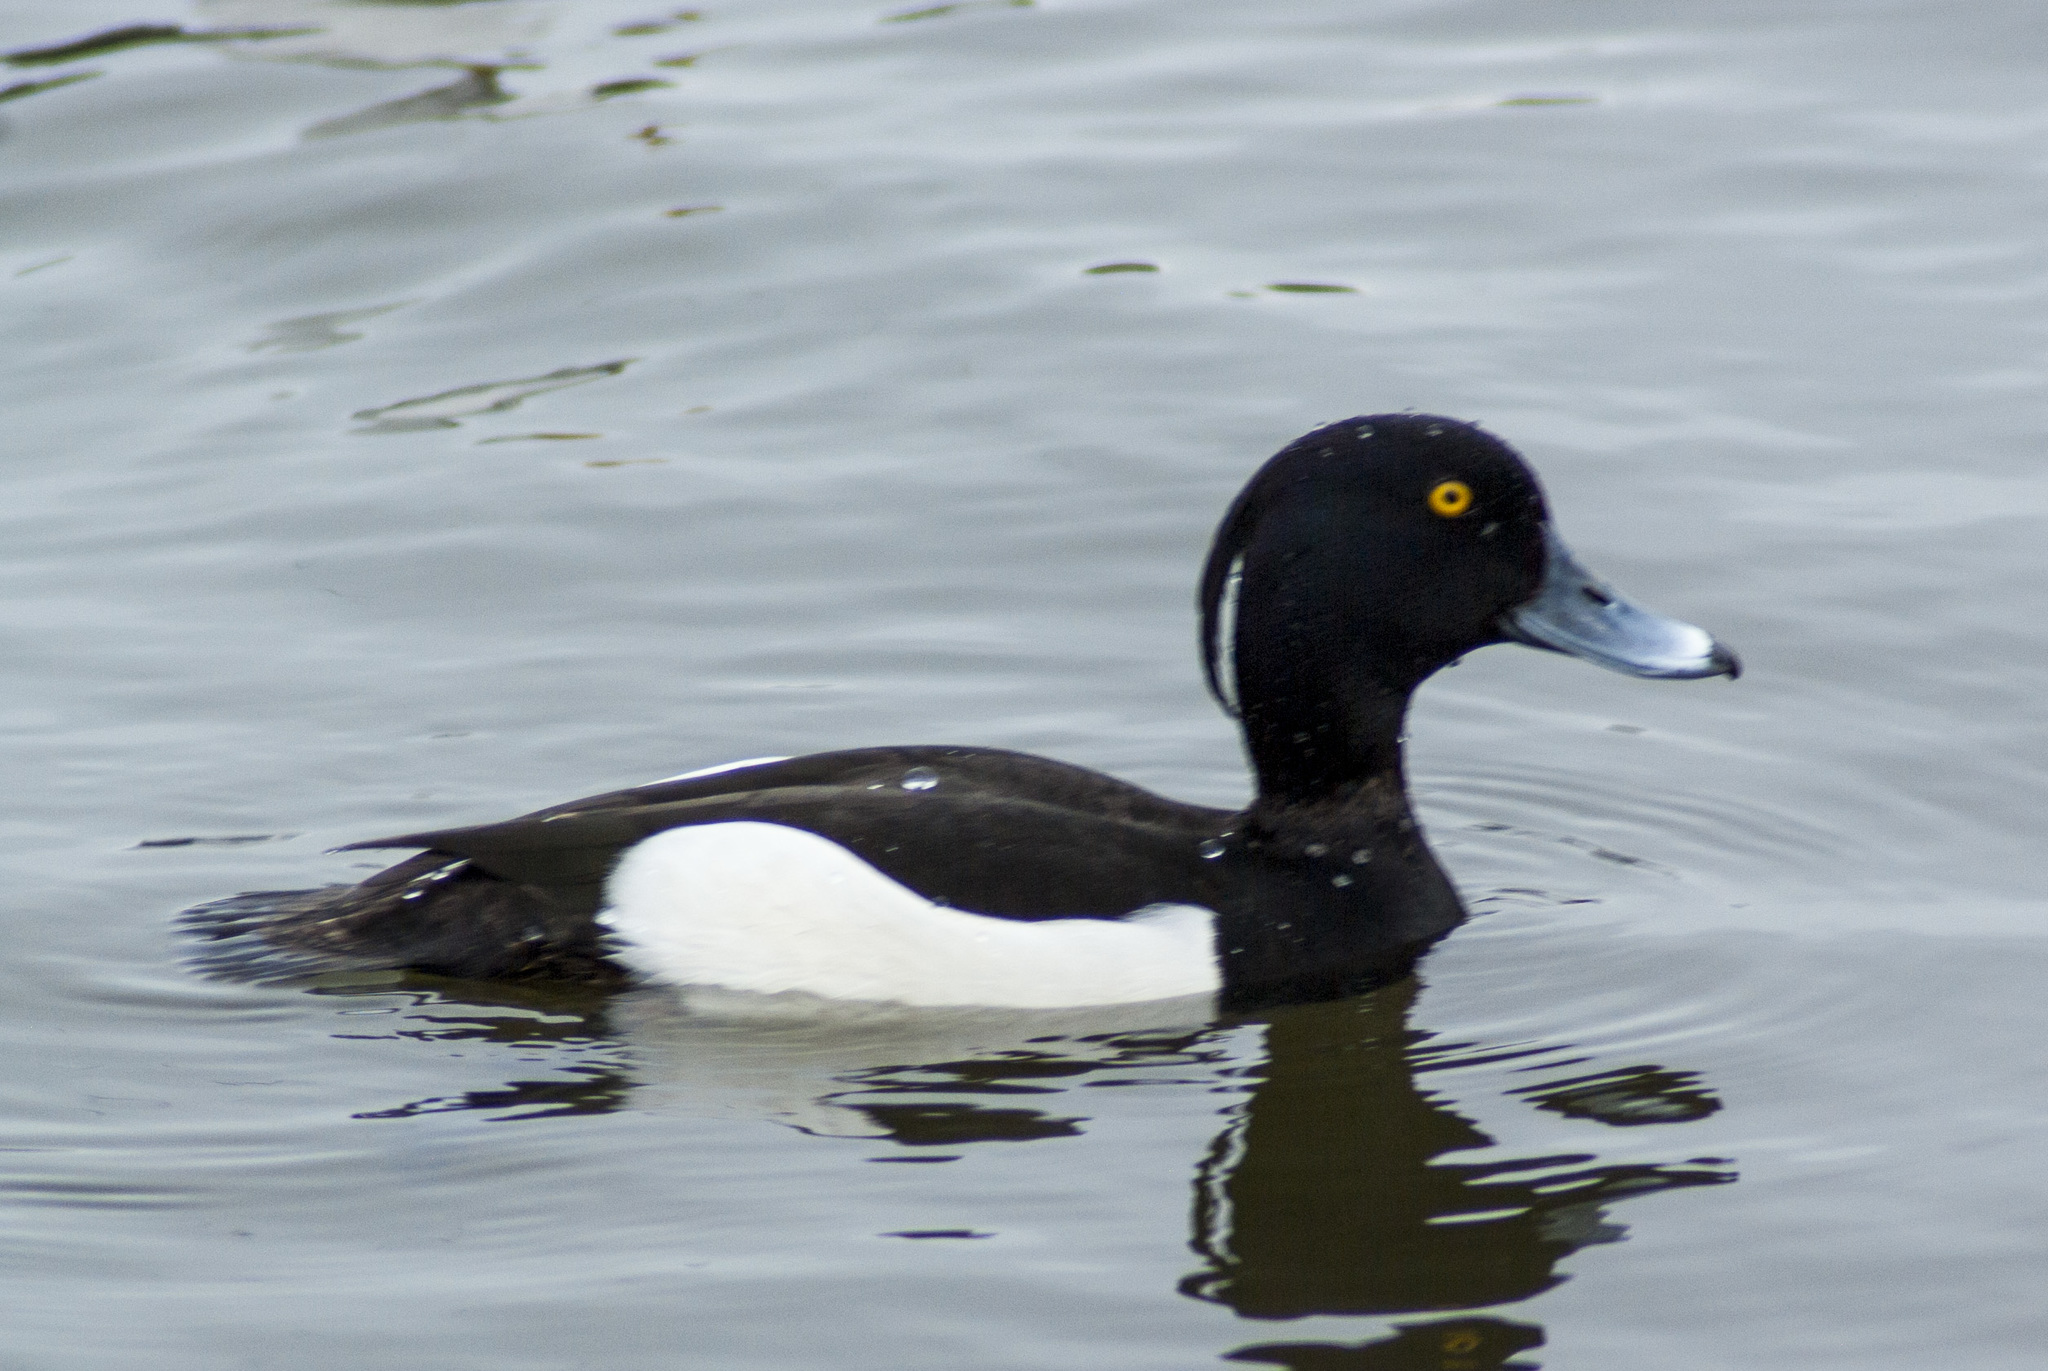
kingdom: Animalia
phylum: Chordata
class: Aves
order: Anseriformes
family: Anatidae
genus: Aythya
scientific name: Aythya fuligula
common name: Tufted duck
